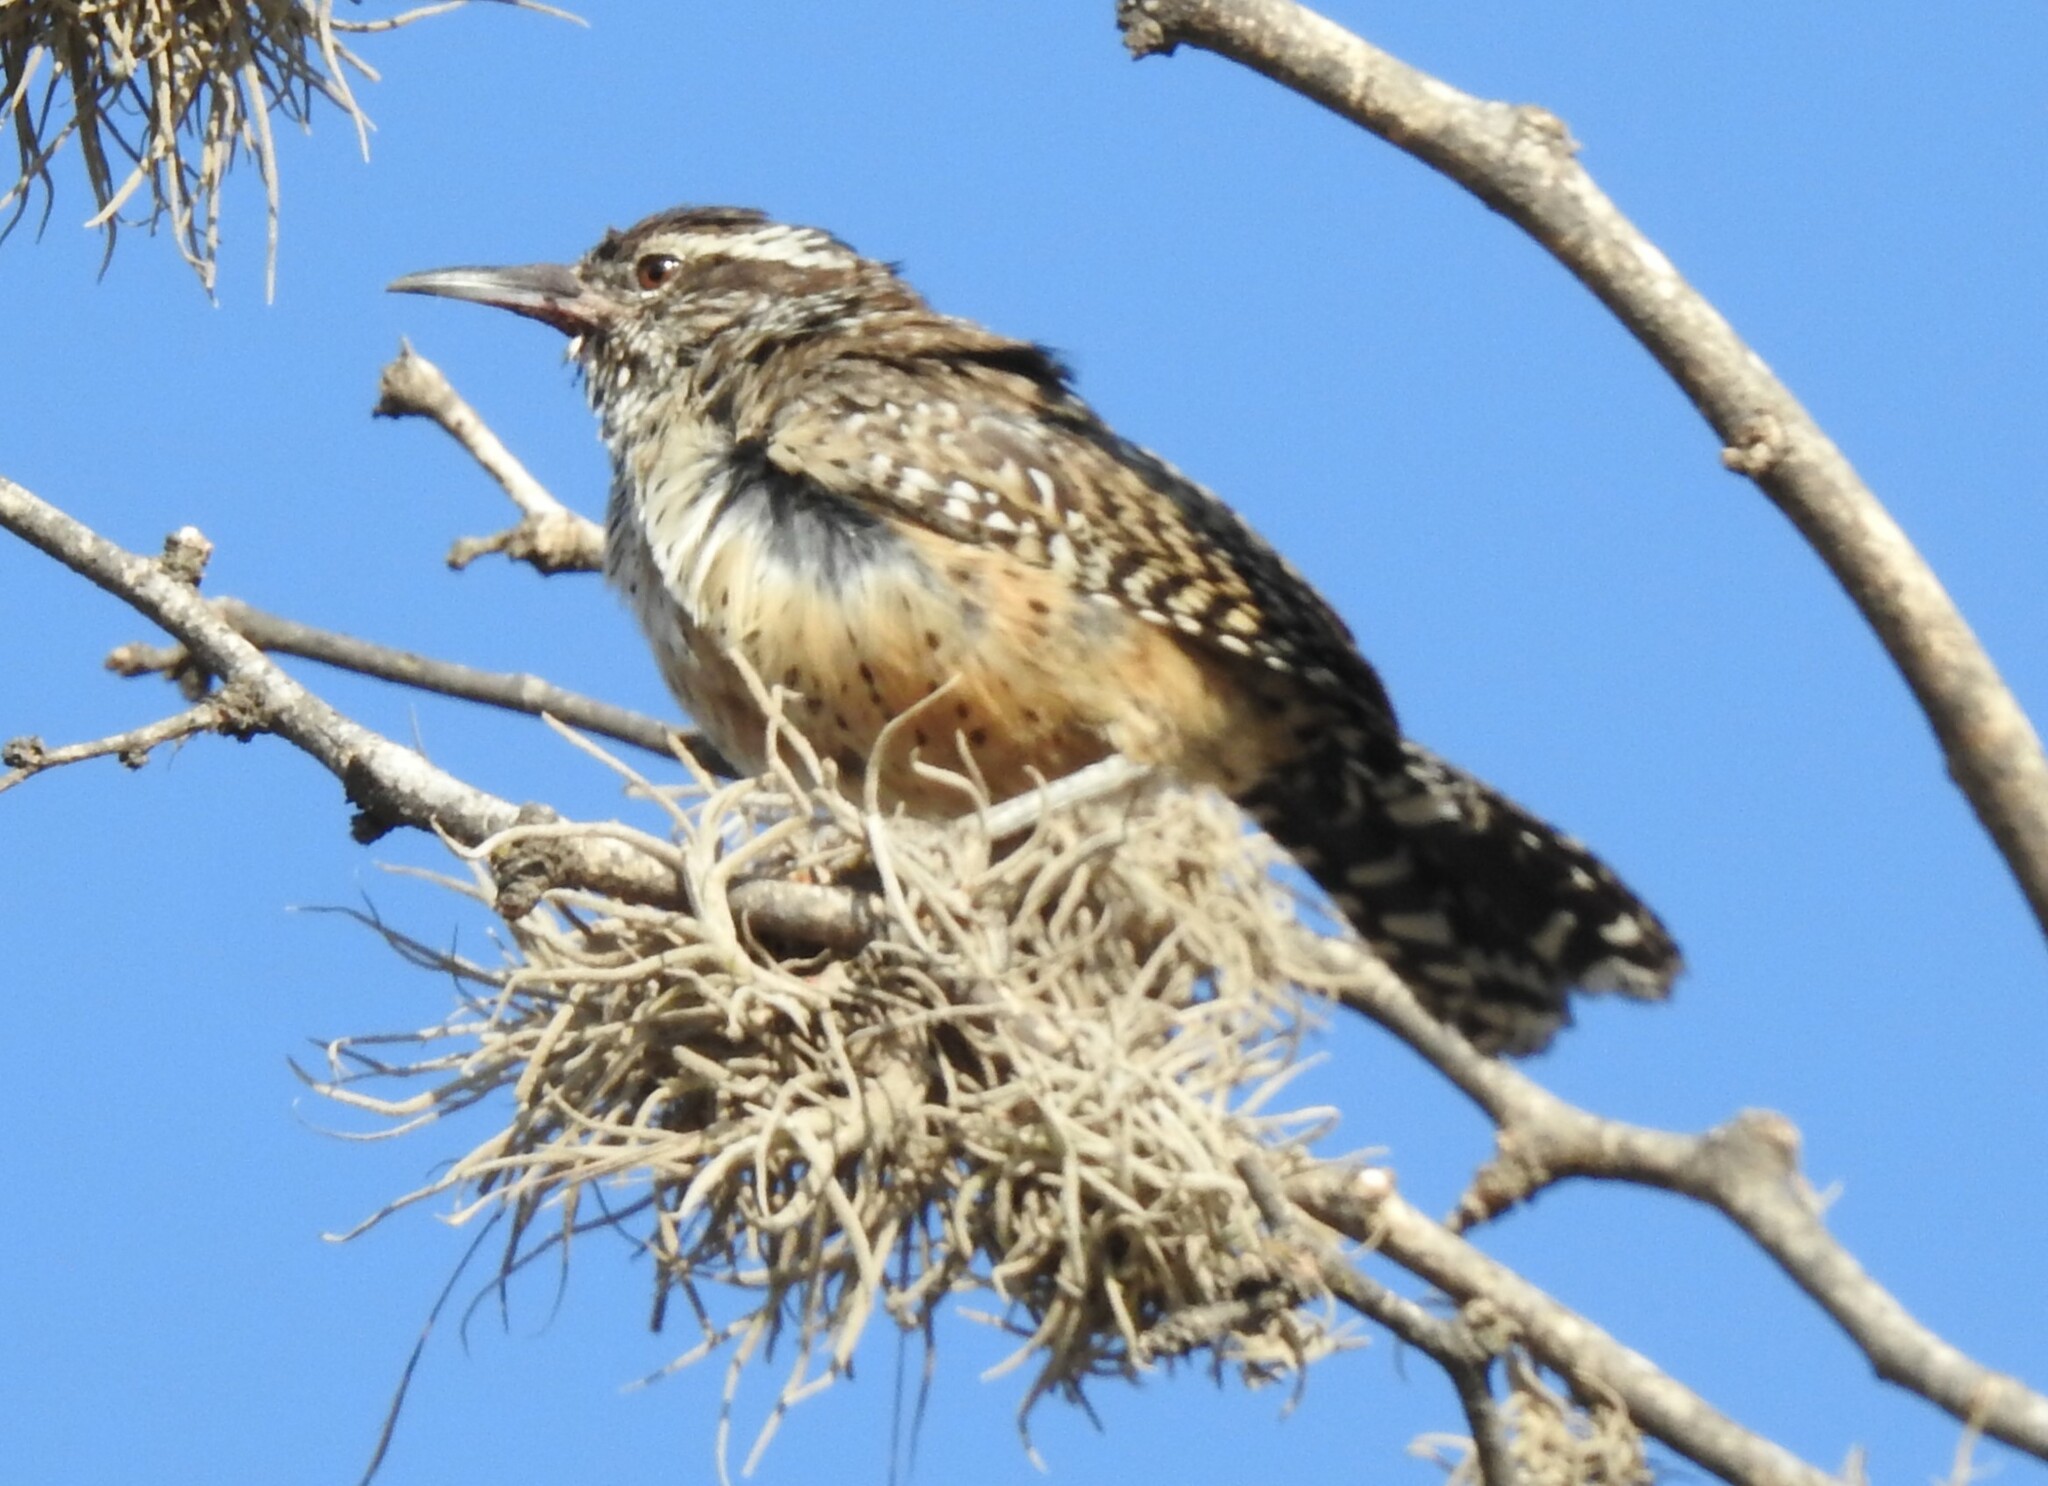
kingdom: Animalia
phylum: Chordata
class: Aves
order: Passeriformes
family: Troglodytidae
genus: Campylorhynchus
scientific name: Campylorhynchus brunneicapillus
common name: Cactus wren
